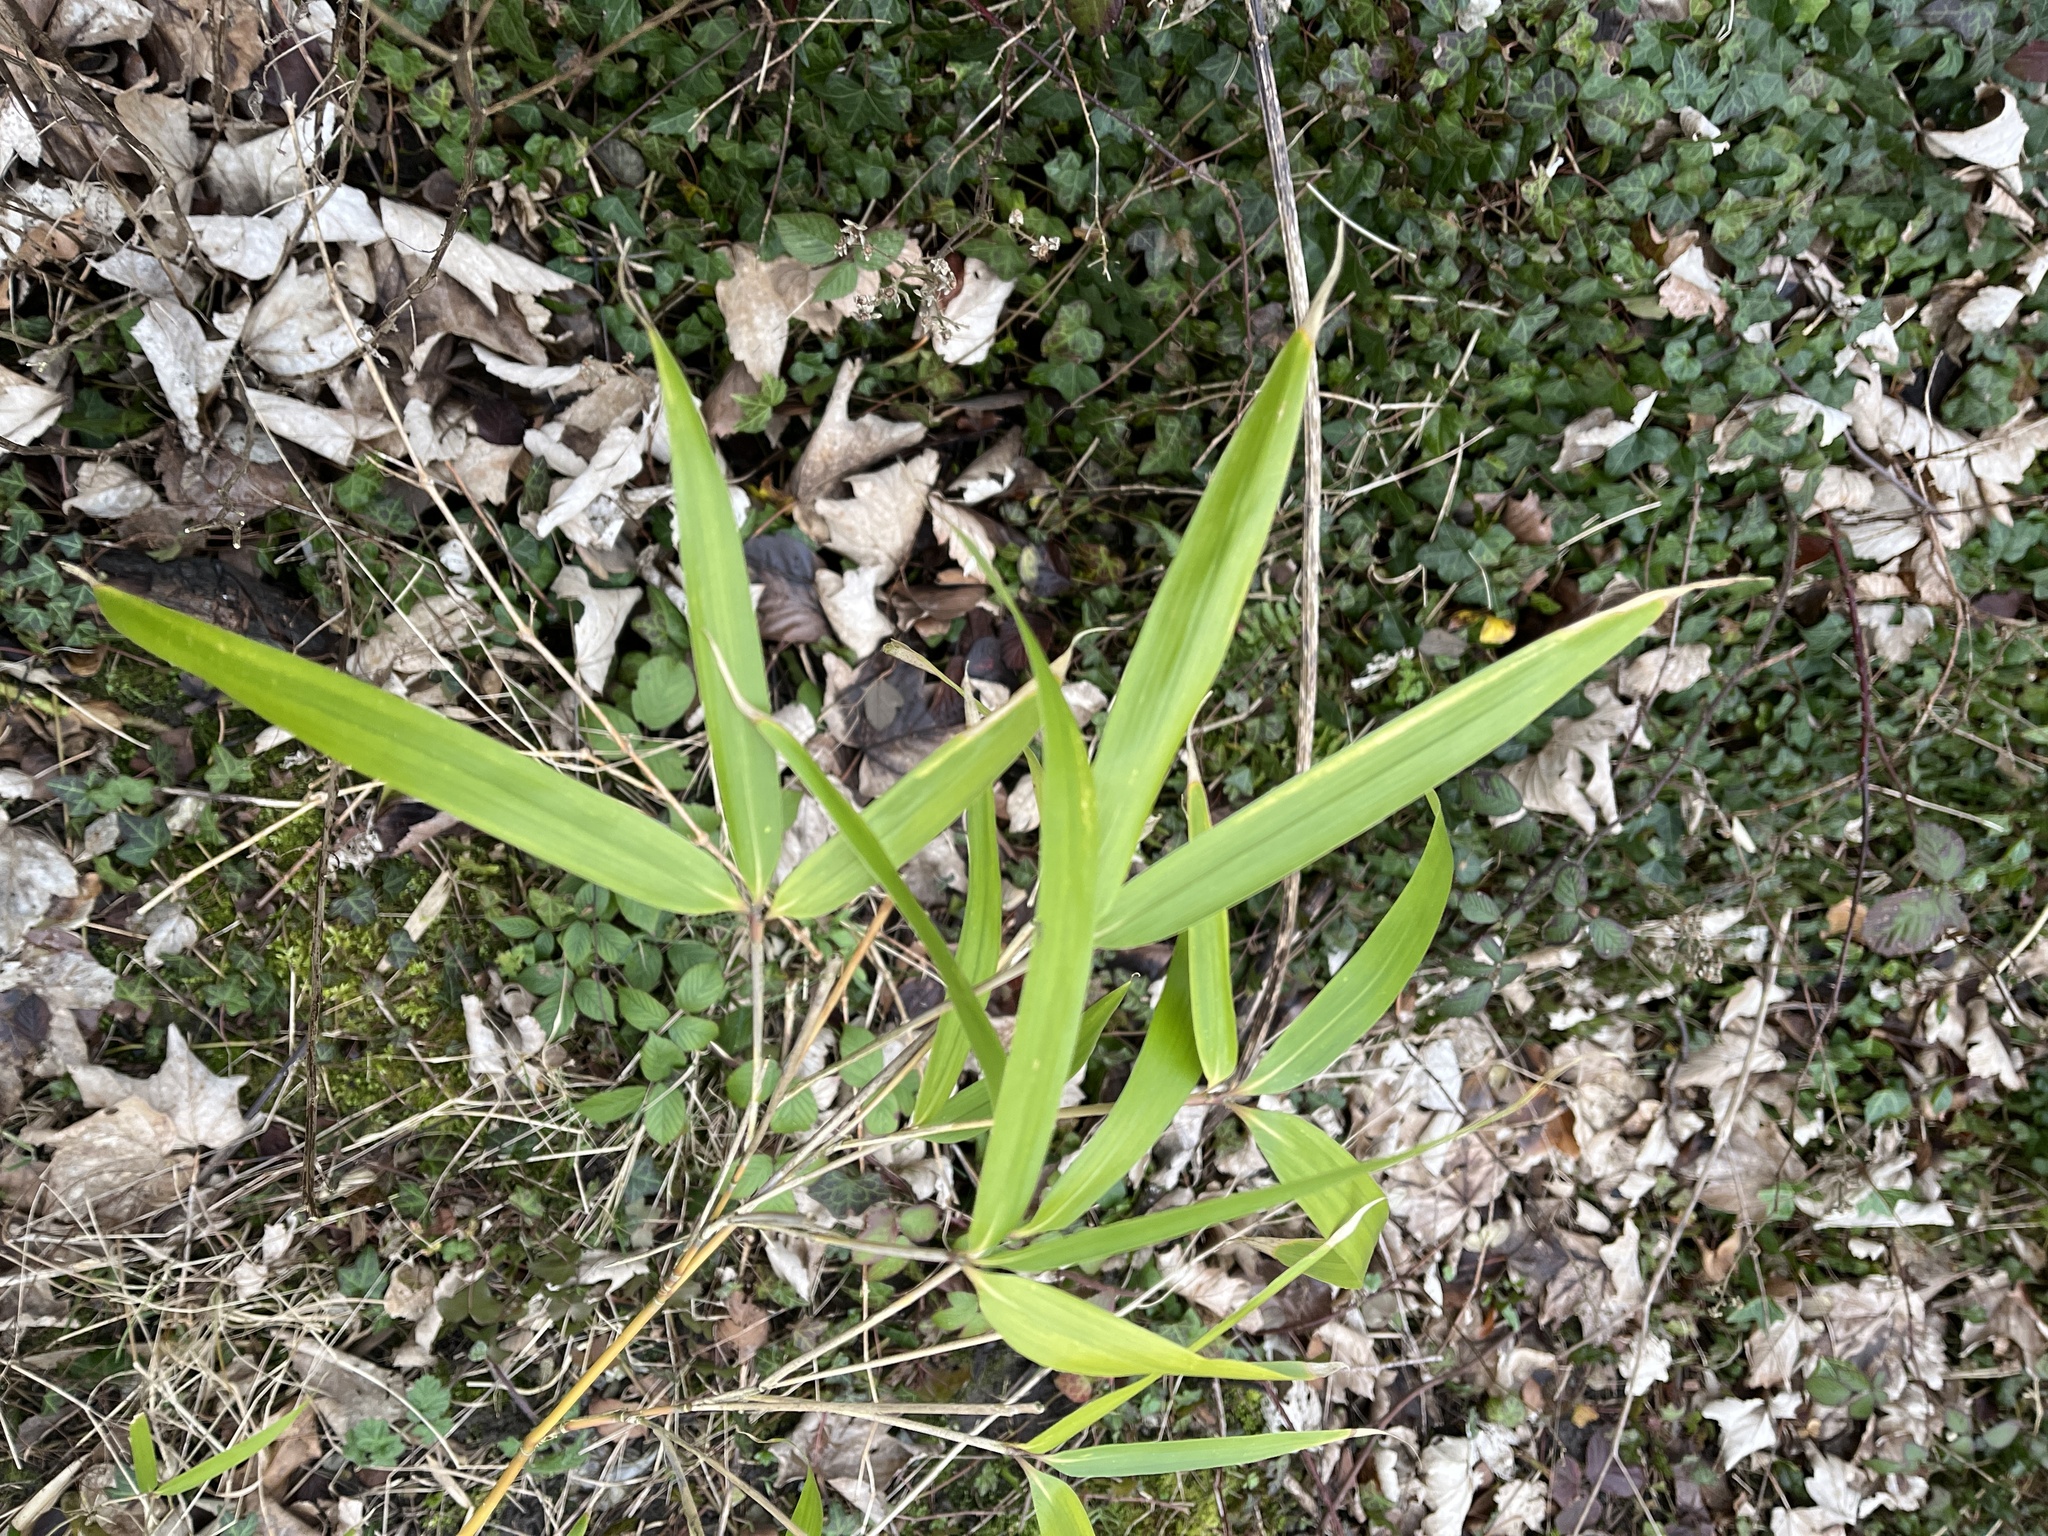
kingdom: Plantae
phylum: Tracheophyta
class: Liliopsida
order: Poales
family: Poaceae
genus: Pseudosasa
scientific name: Pseudosasa japonica
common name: Arrow bamboo
